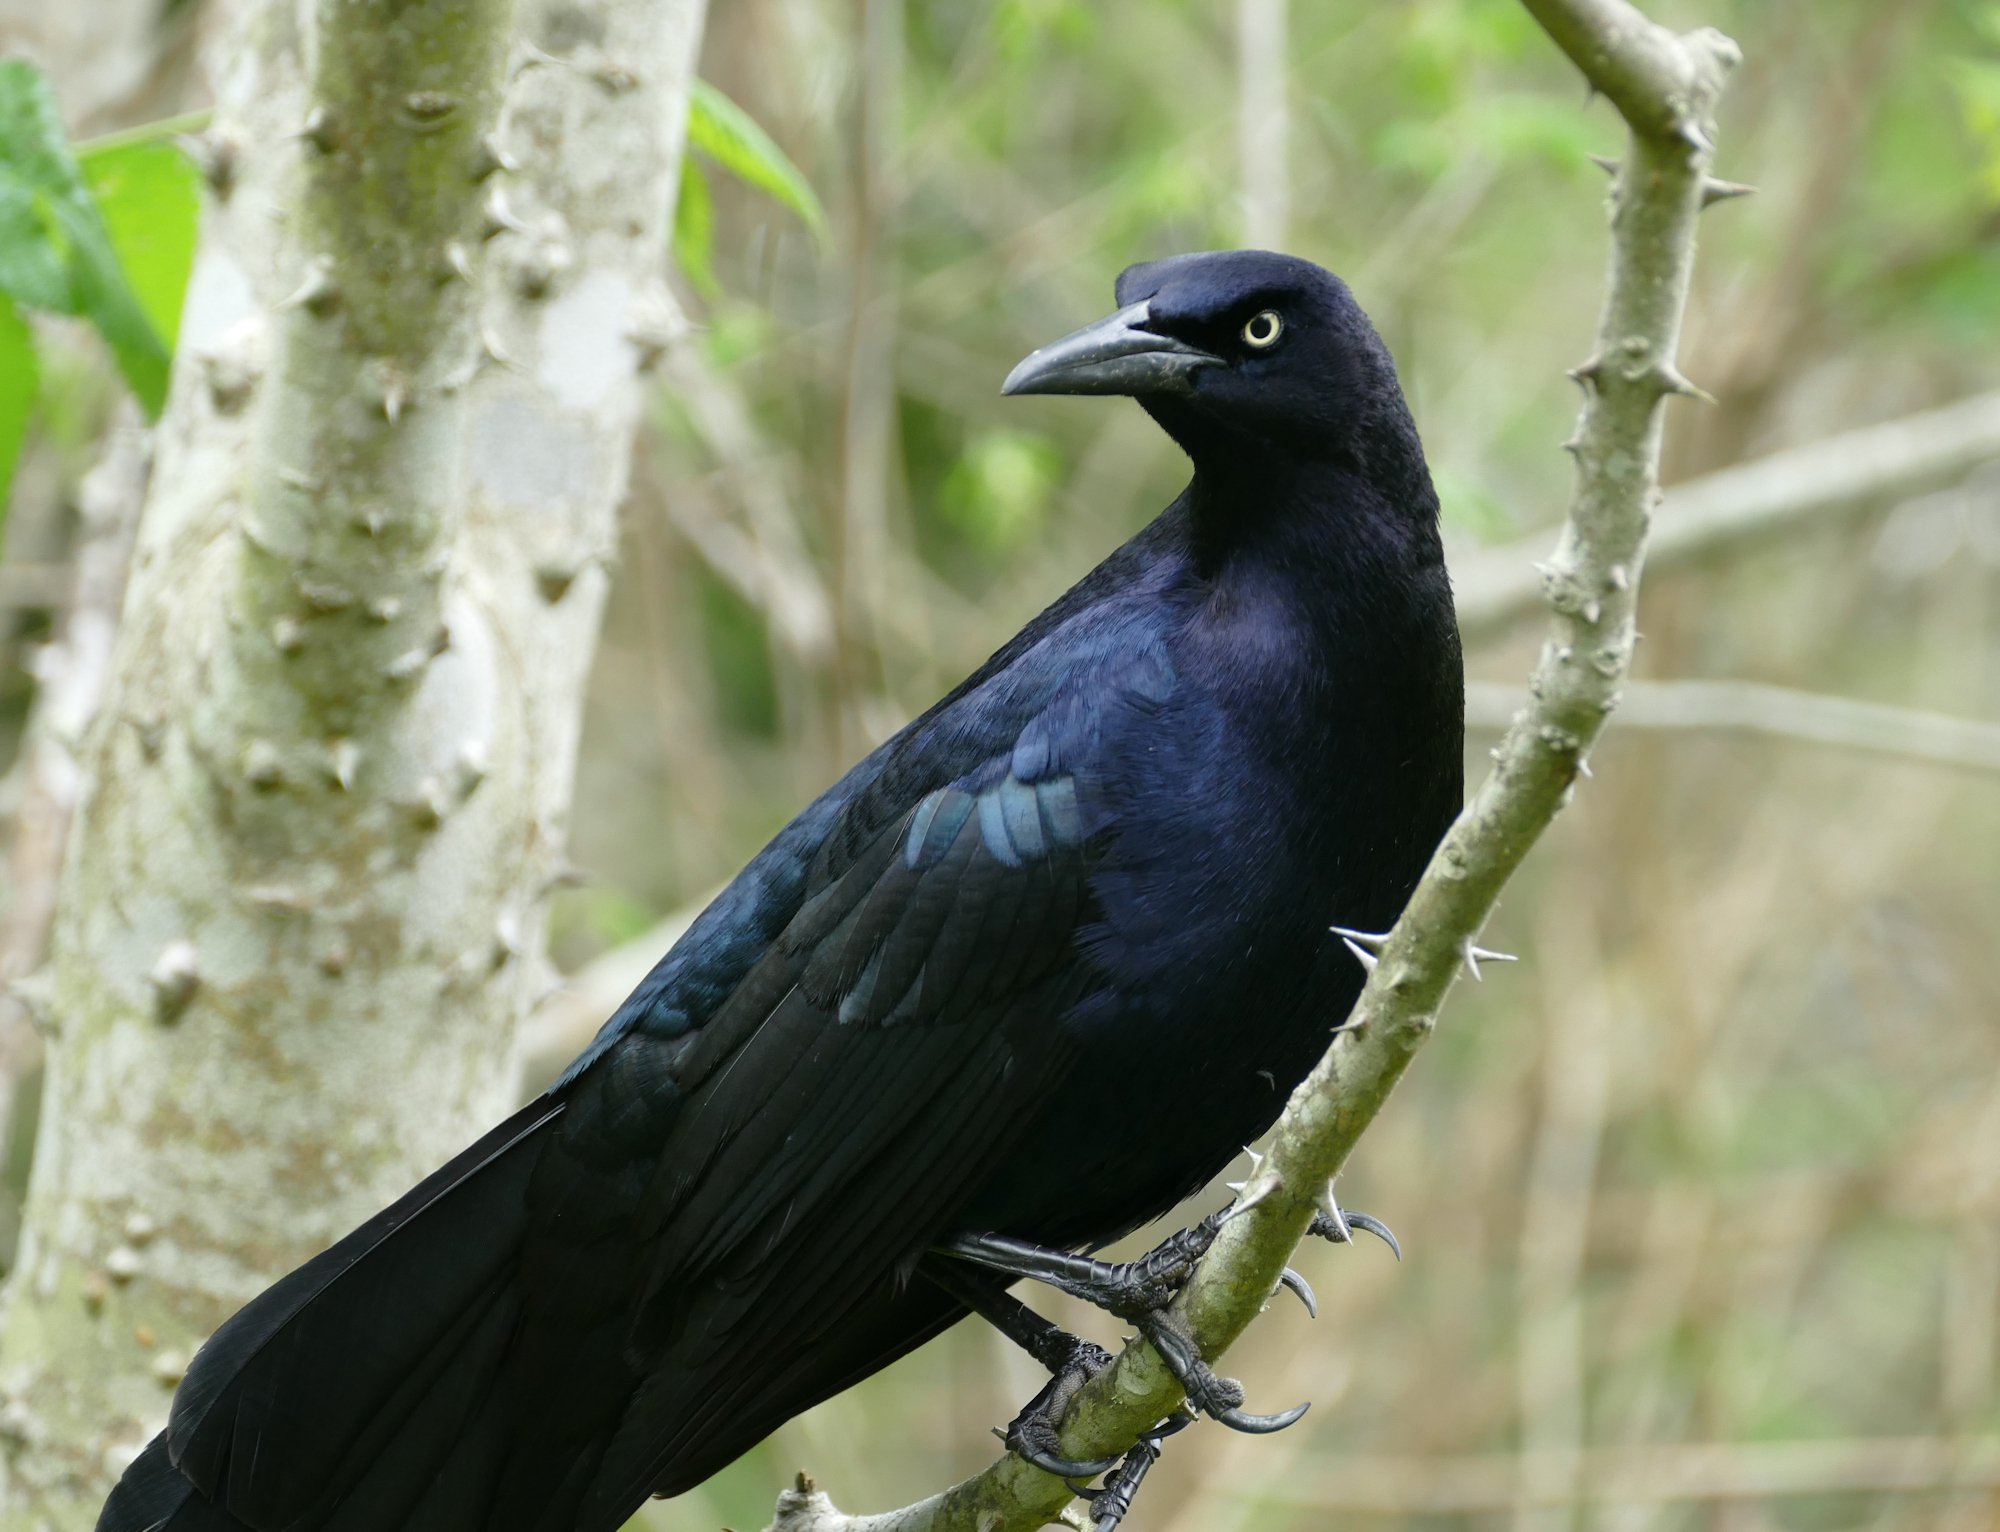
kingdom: Animalia
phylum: Chordata
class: Aves
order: Passeriformes
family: Icteridae
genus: Quiscalus
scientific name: Quiscalus mexicanus
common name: Great-tailed grackle
